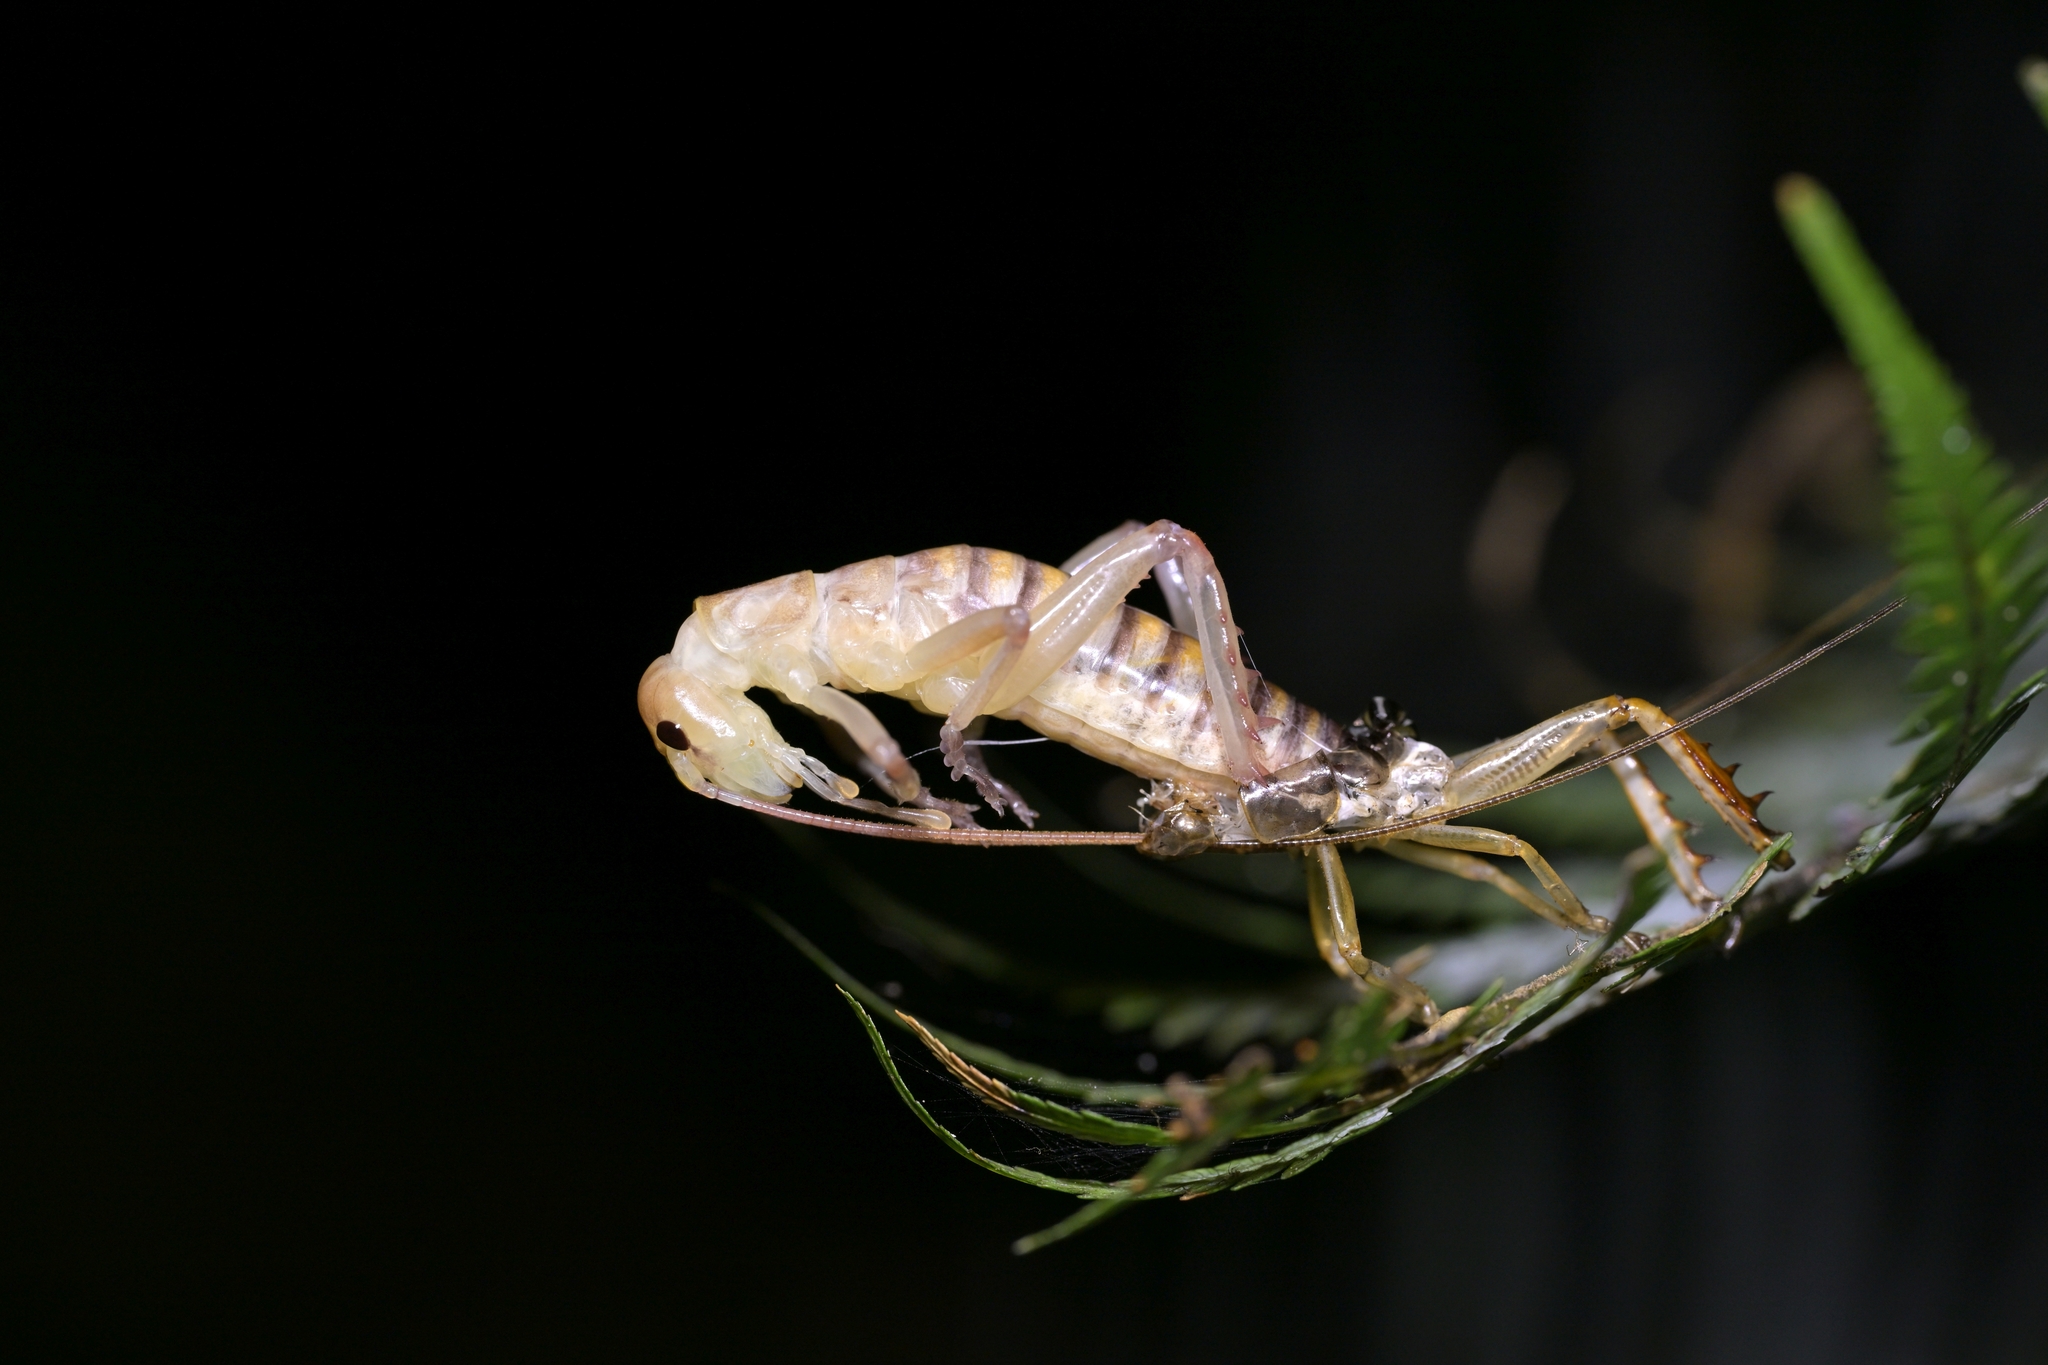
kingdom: Animalia
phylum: Arthropoda
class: Insecta
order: Orthoptera
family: Anostostomatidae
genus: Hemideina
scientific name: Hemideina crassidens
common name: Wellington tree weta
